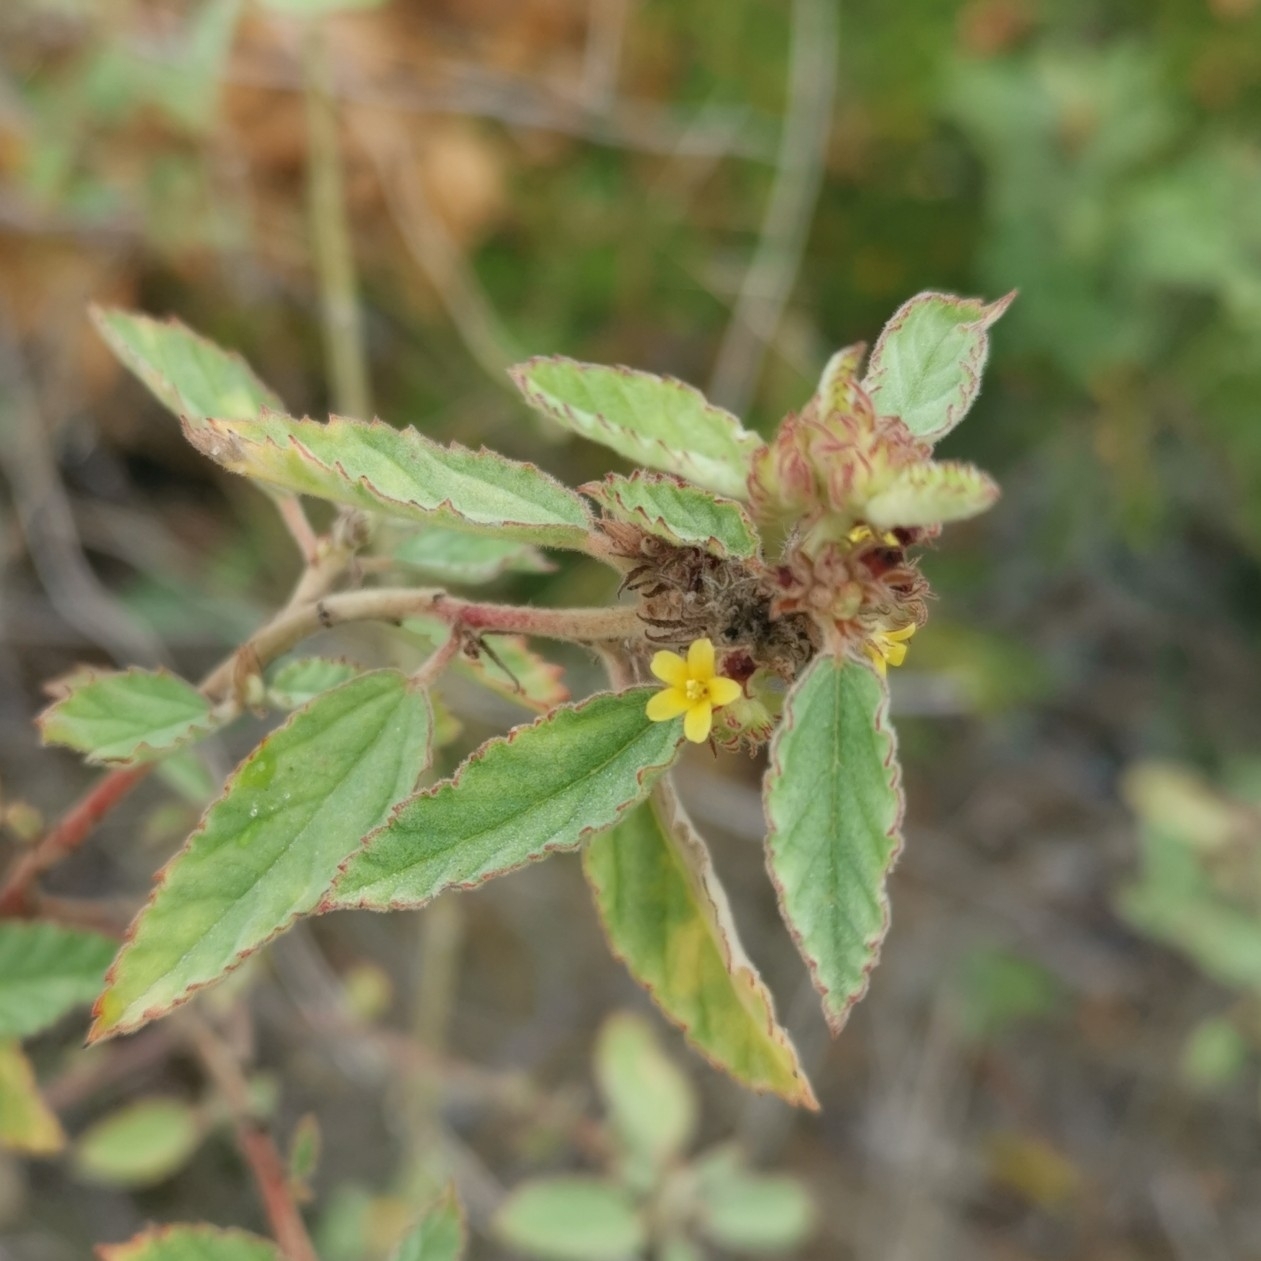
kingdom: Plantae
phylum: Tracheophyta
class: Magnoliopsida
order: Malvales
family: Malvaceae
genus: Waltheria
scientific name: Waltheria indica
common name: Leather-coat
